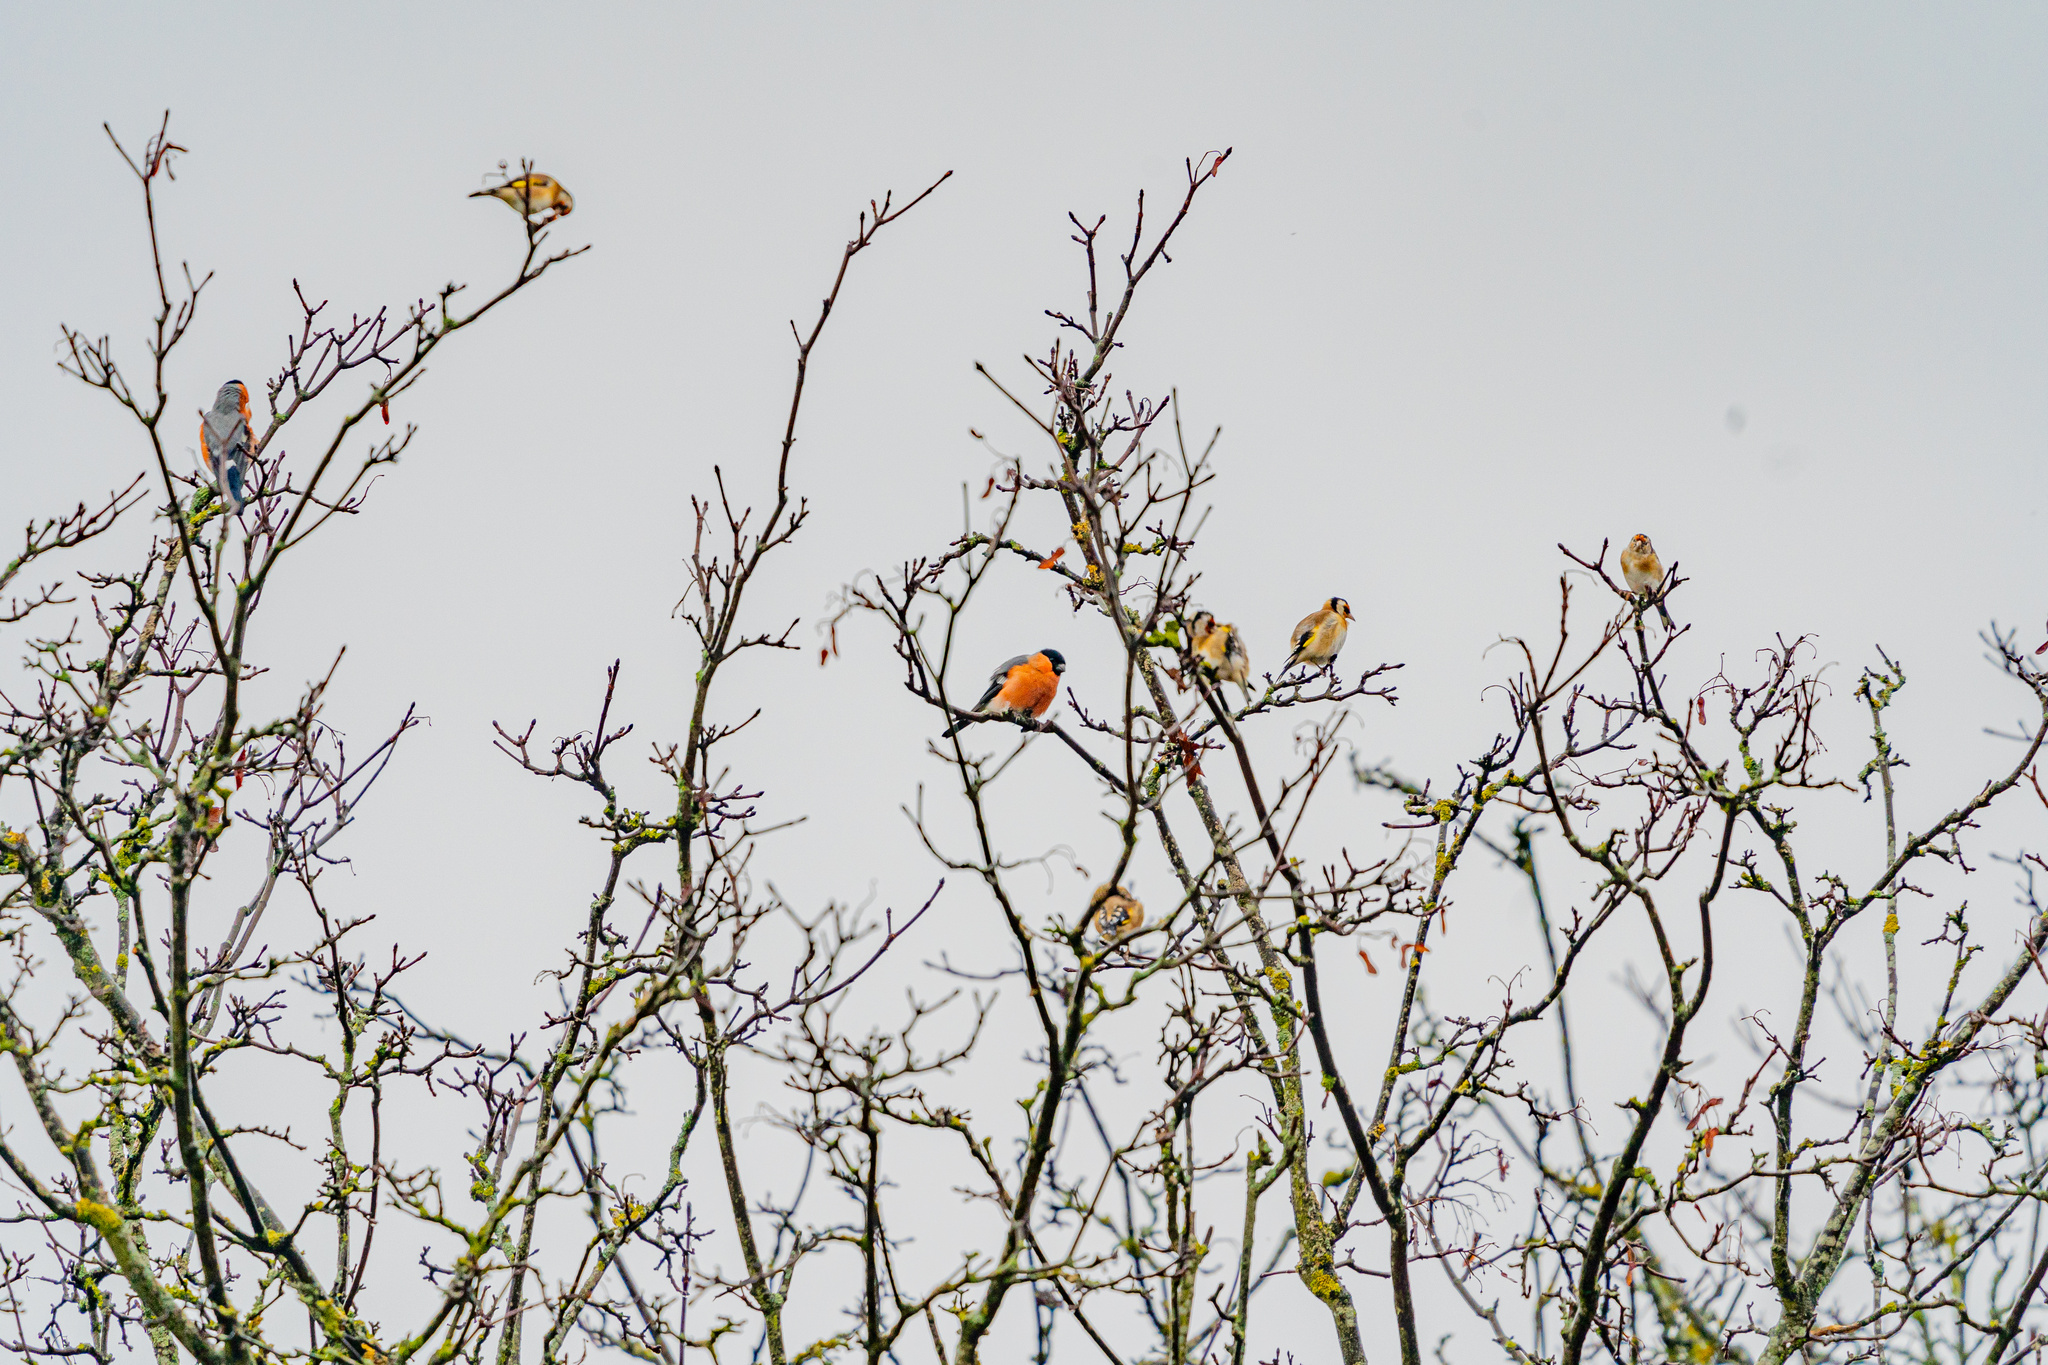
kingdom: Animalia
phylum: Chordata
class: Aves
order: Passeriformes
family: Fringillidae
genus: Pyrrhula
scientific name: Pyrrhula pyrrhula
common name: Eurasian bullfinch
